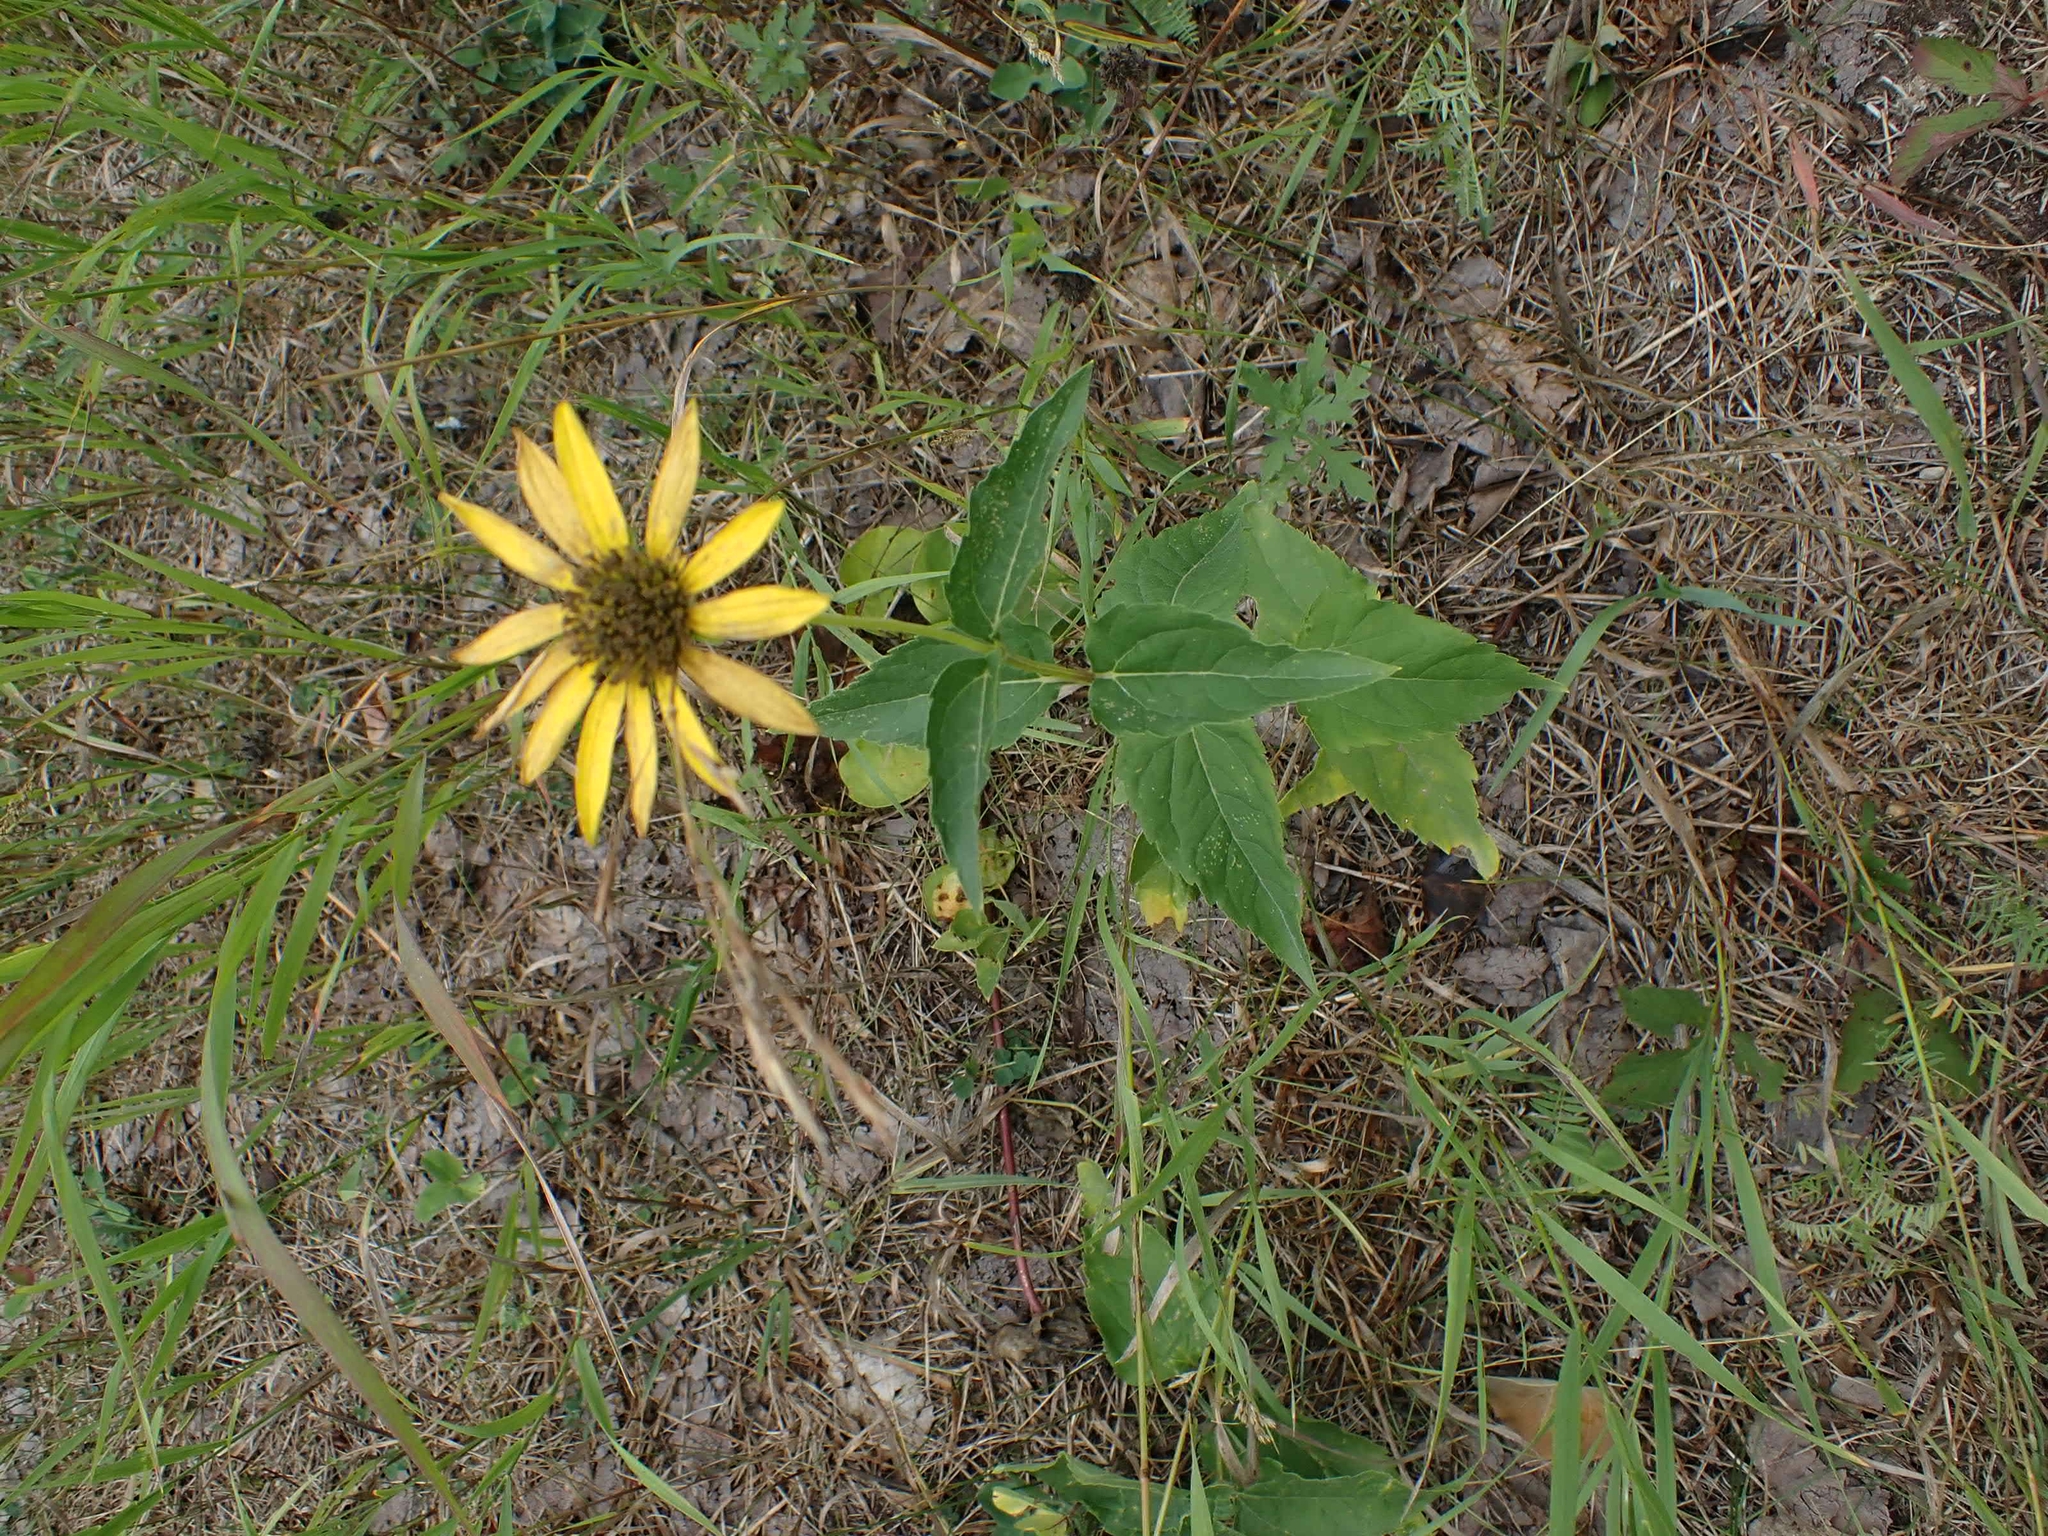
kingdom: Plantae
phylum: Tracheophyta
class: Magnoliopsida
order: Asterales
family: Asteraceae
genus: Heliopsis
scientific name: Heliopsis helianthoides
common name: False sunflower
